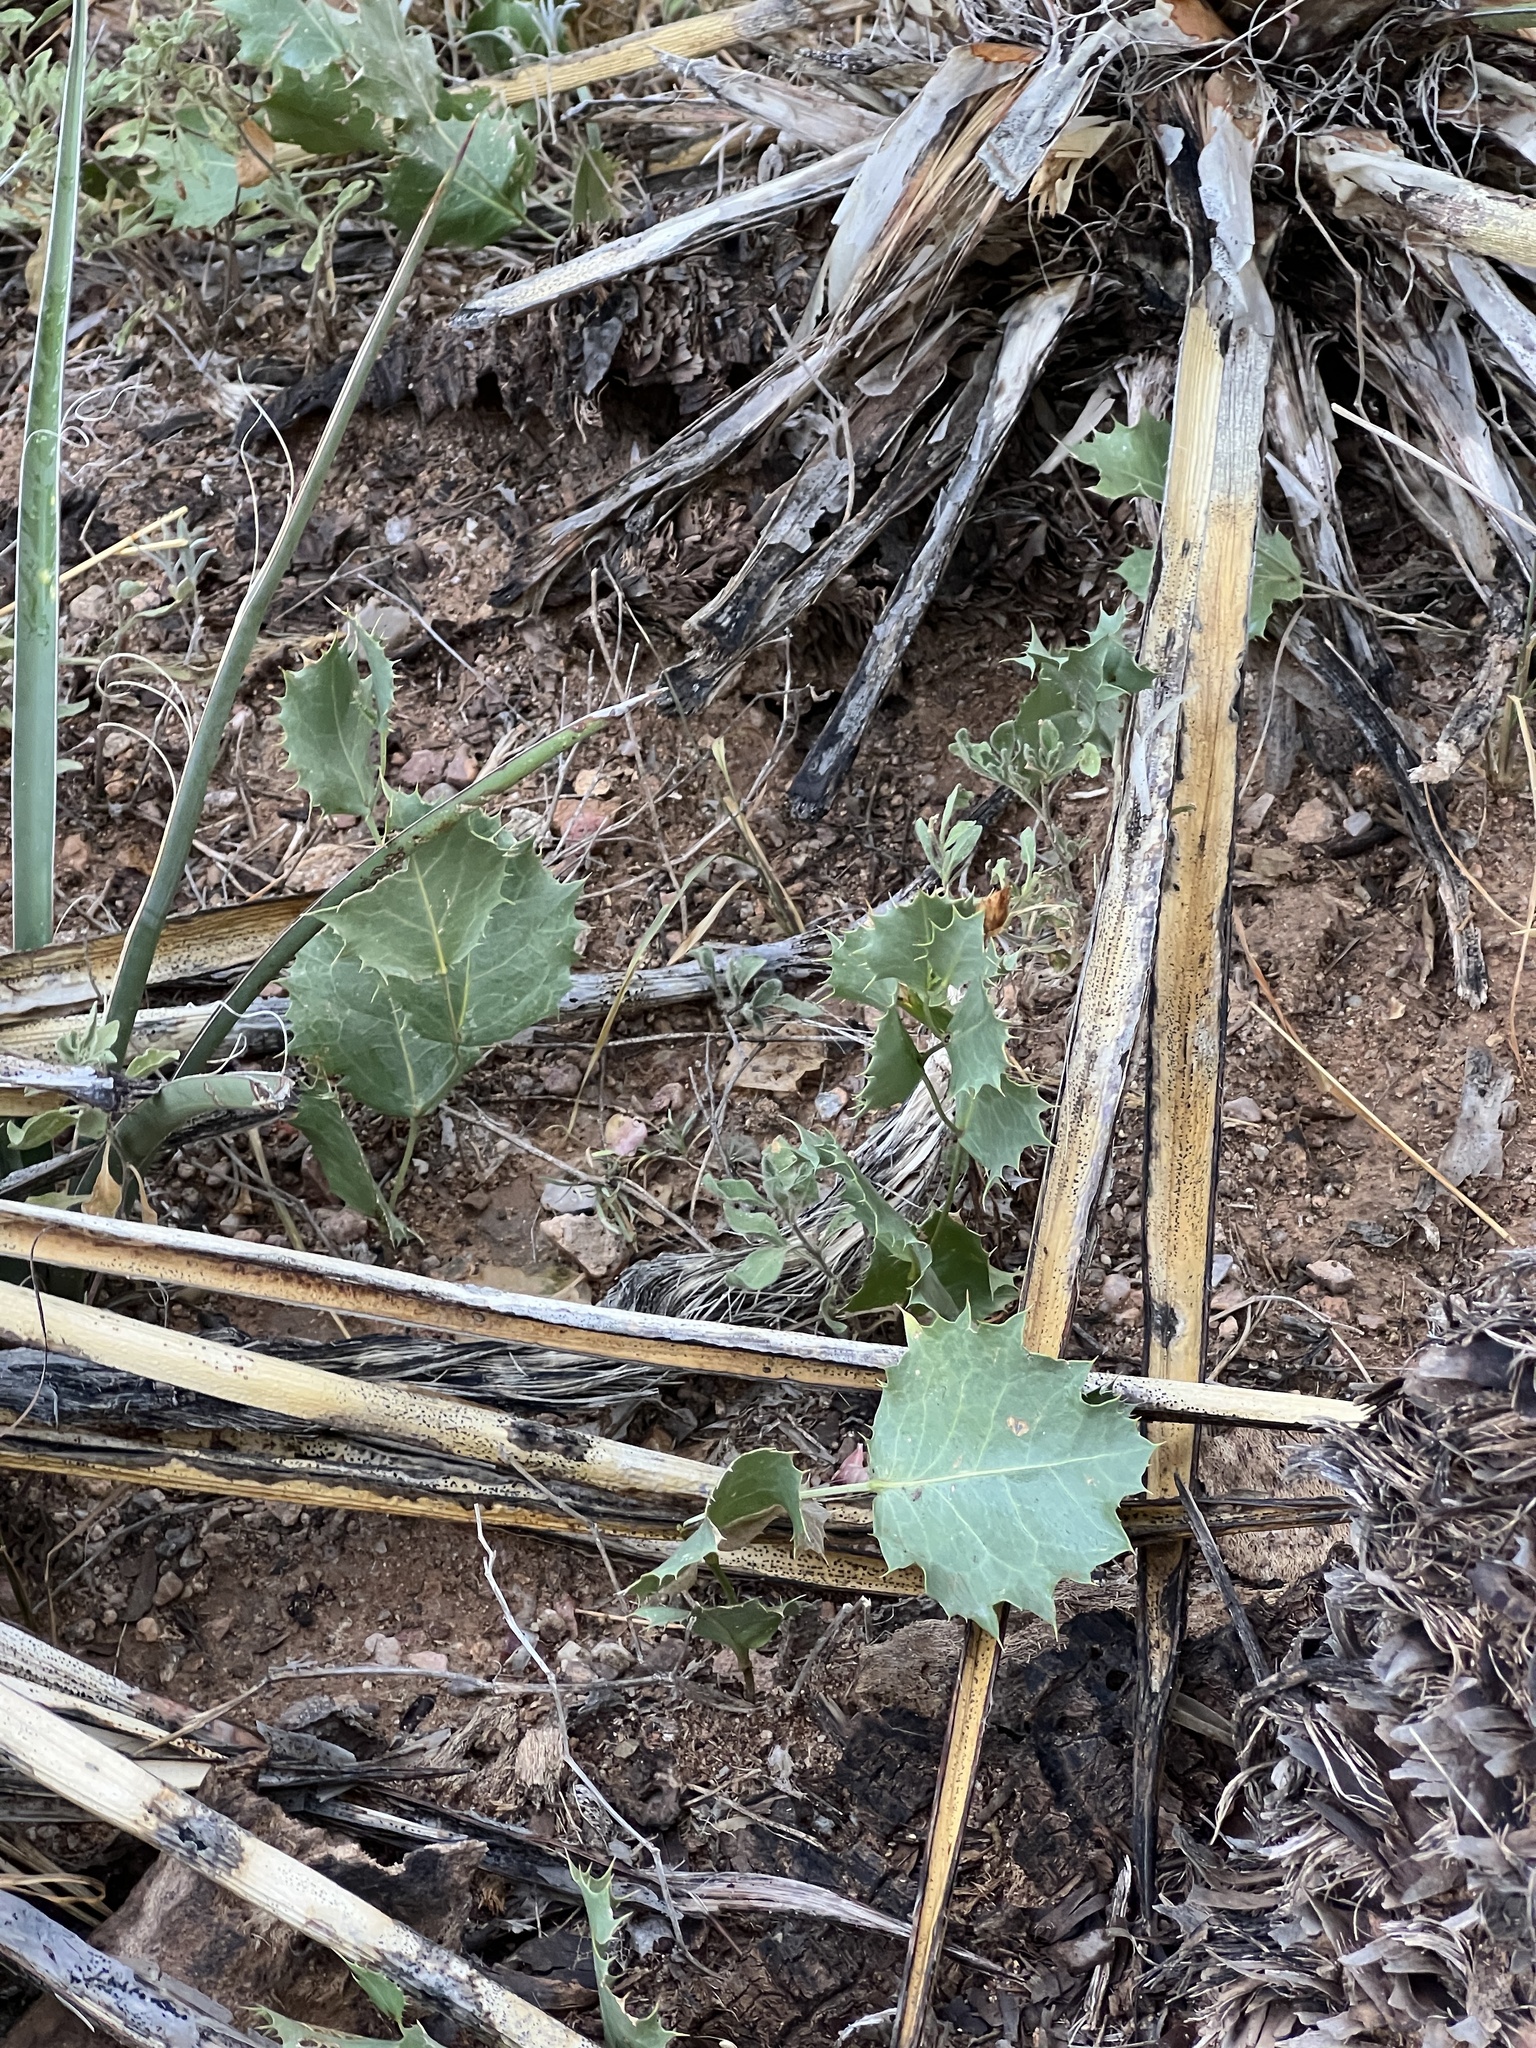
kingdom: Plantae
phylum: Tracheophyta
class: Magnoliopsida
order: Asterales
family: Asteraceae
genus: Acourtia
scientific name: Acourtia nana
